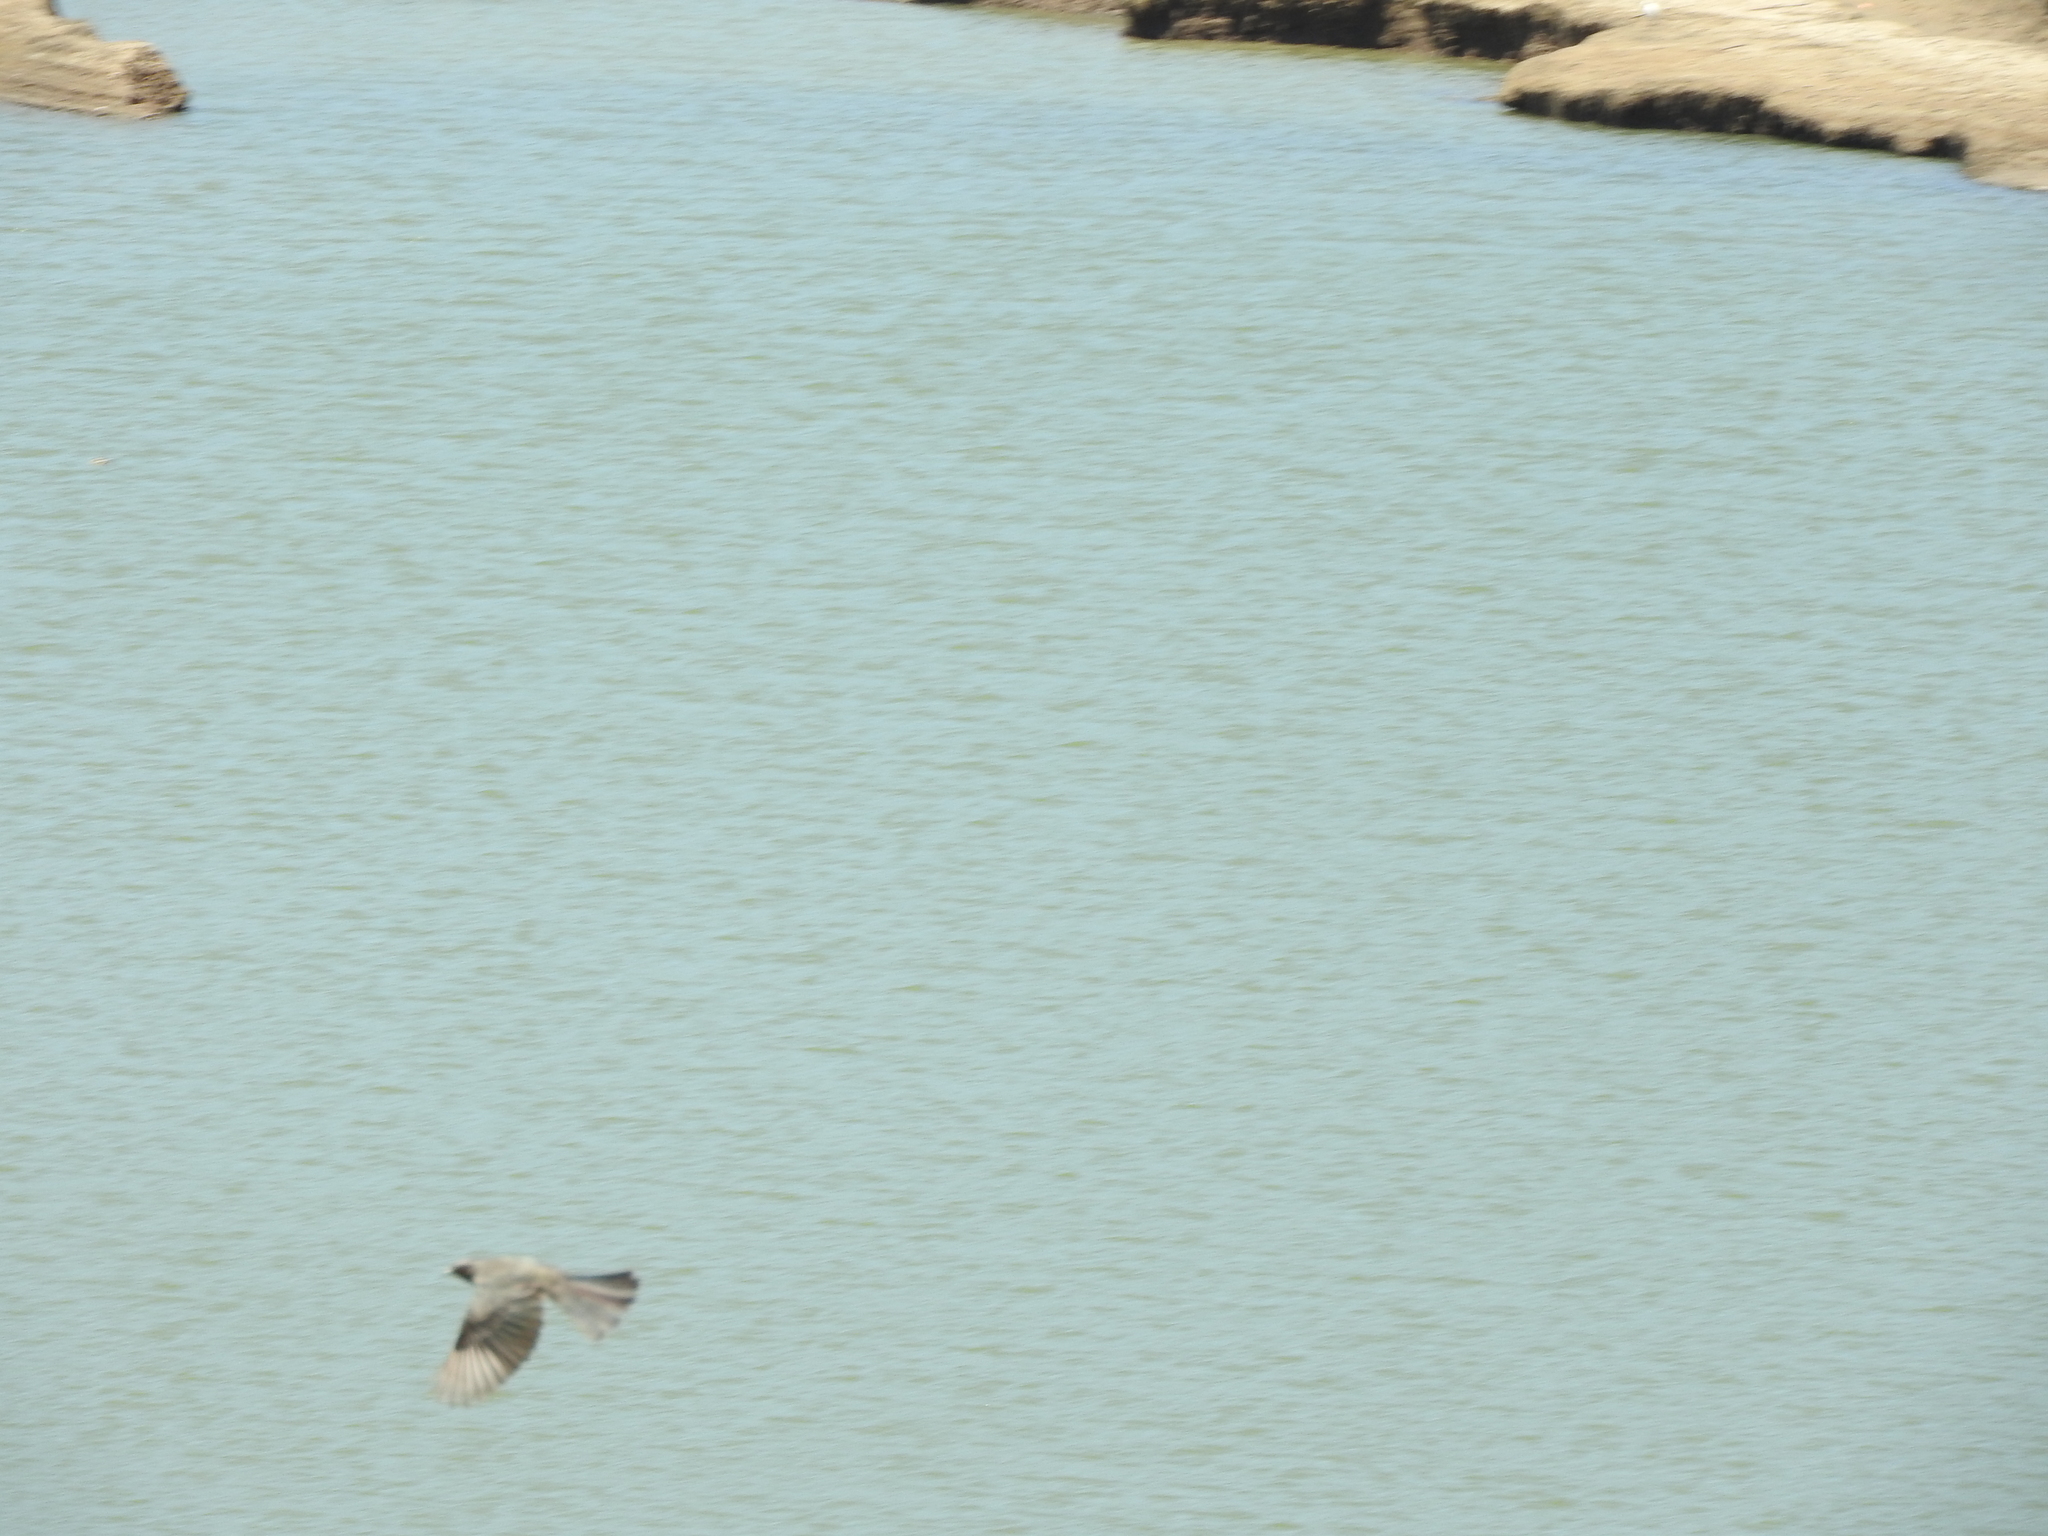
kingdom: Animalia
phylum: Chordata
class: Aves
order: Passeriformes
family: Tyrannidae
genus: Sayornis
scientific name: Sayornis saya
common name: Say's phoebe
